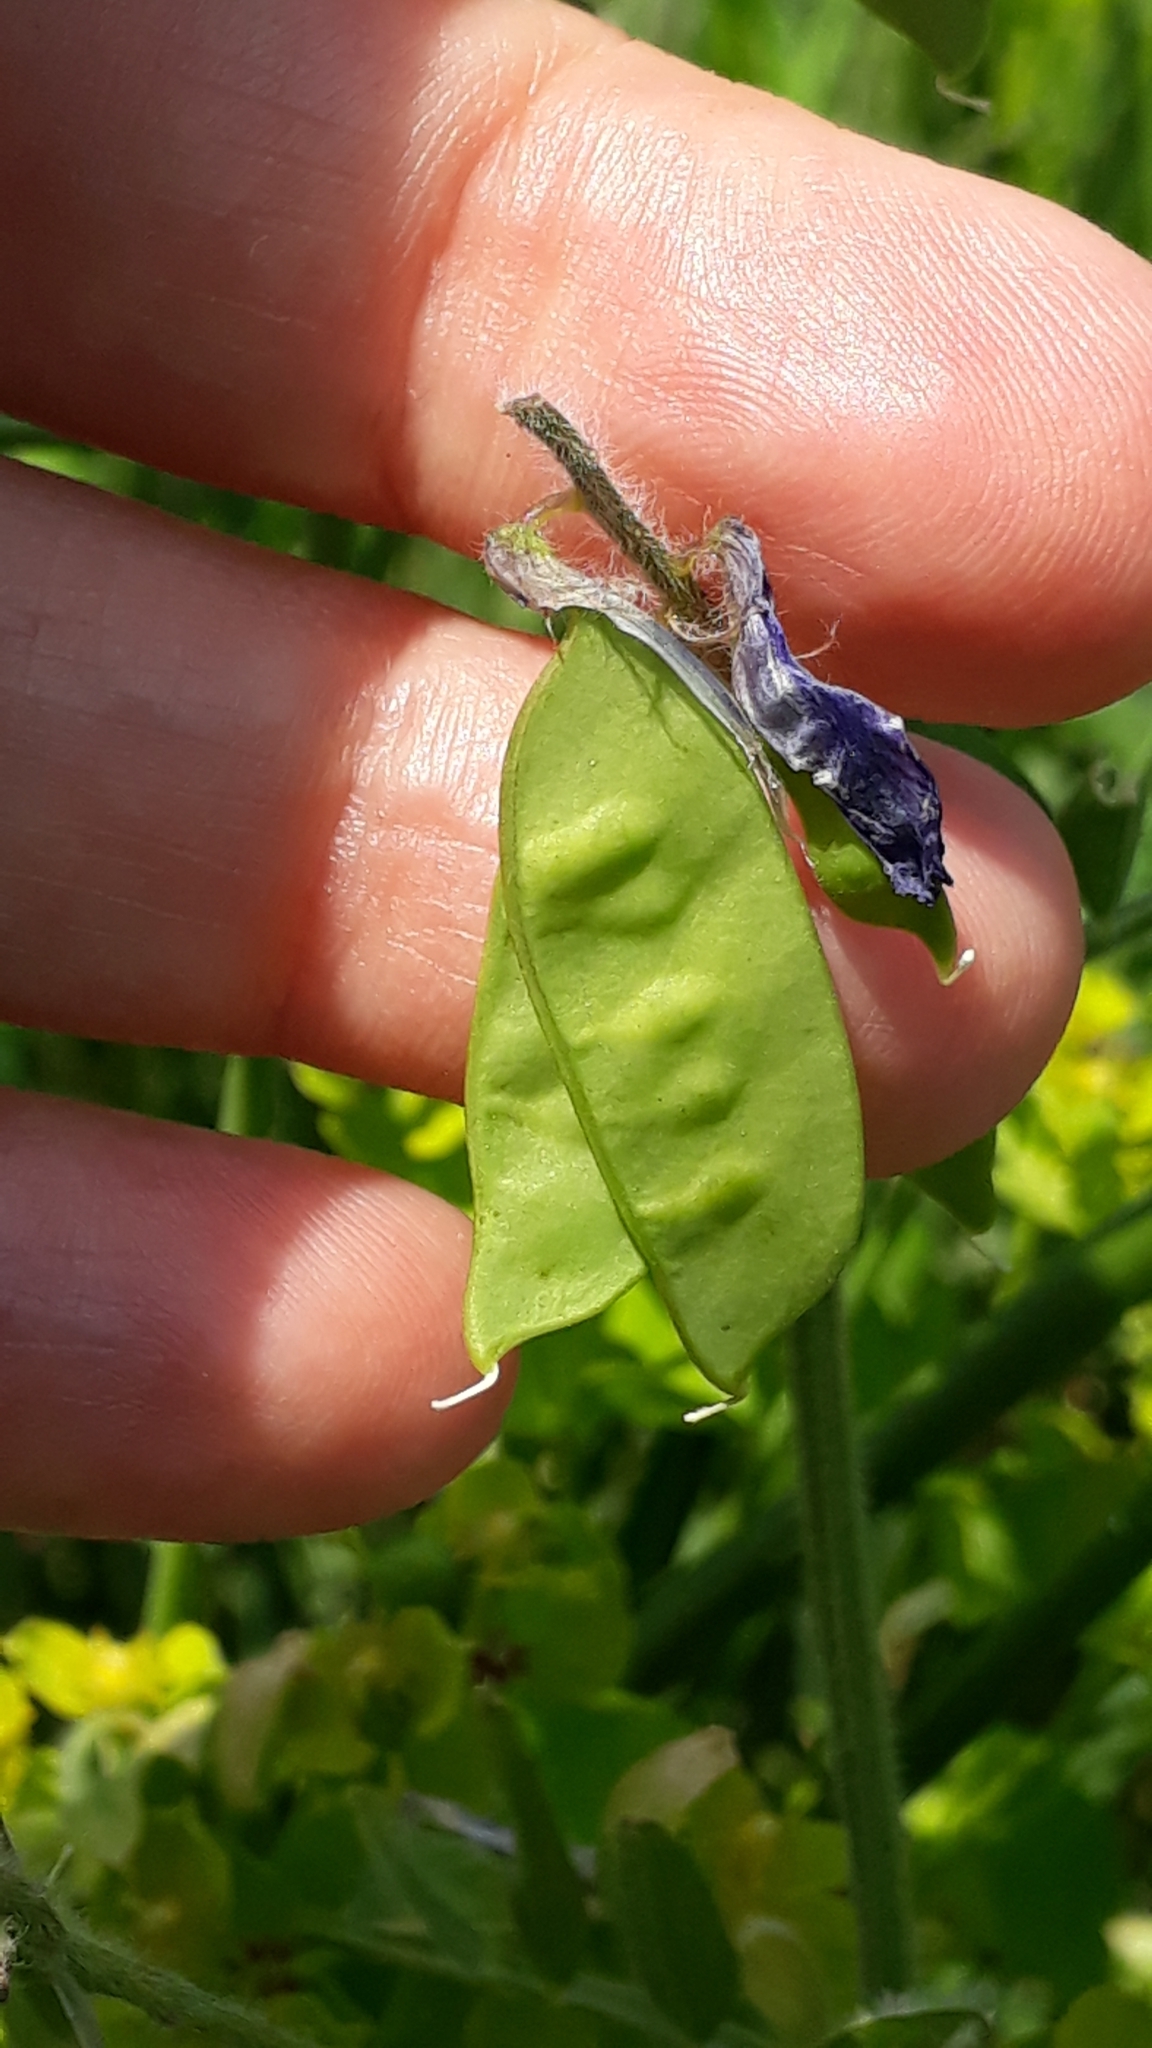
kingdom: Plantae
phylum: Tracheophyta
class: Magnoliopsida
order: Fabales
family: Fabaceae
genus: Vicia
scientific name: Vicia villosa
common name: Fodder vetch
